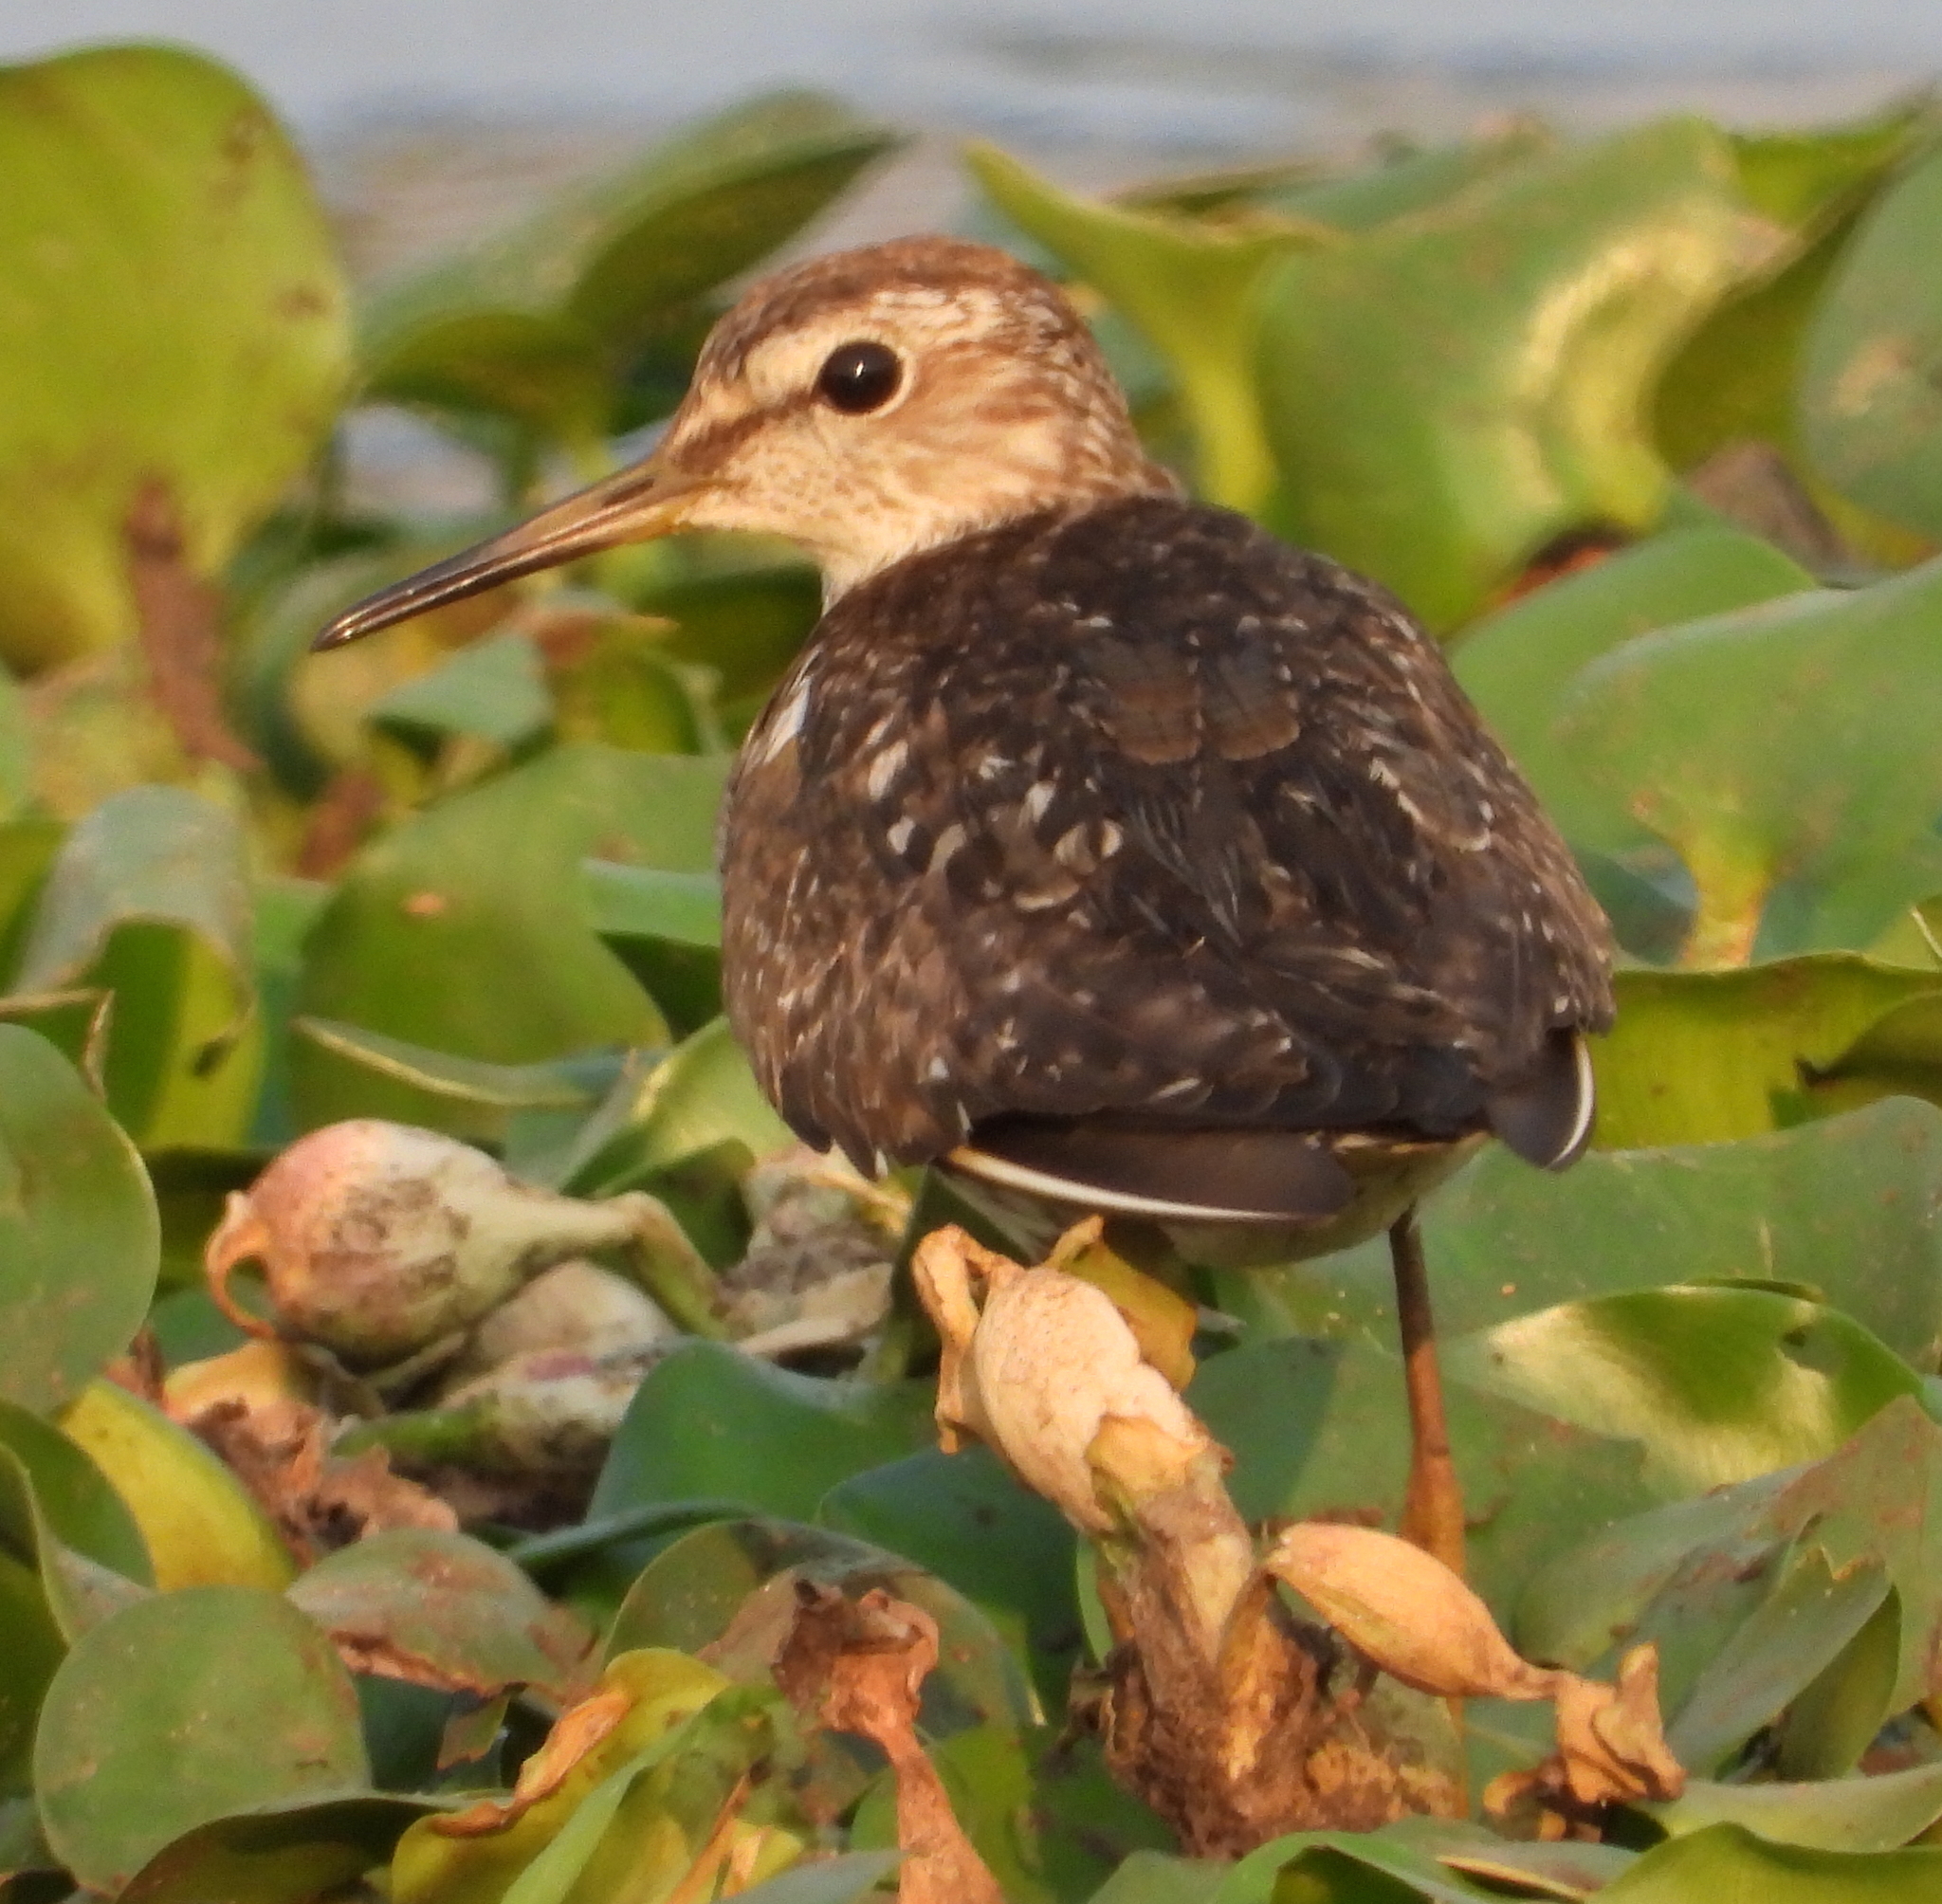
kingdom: Animalia
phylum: Chordata
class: Aves
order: Charadriiformes
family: Scolopacidae
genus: Tringa
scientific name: Tringa glareola
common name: Wood sandpiper
